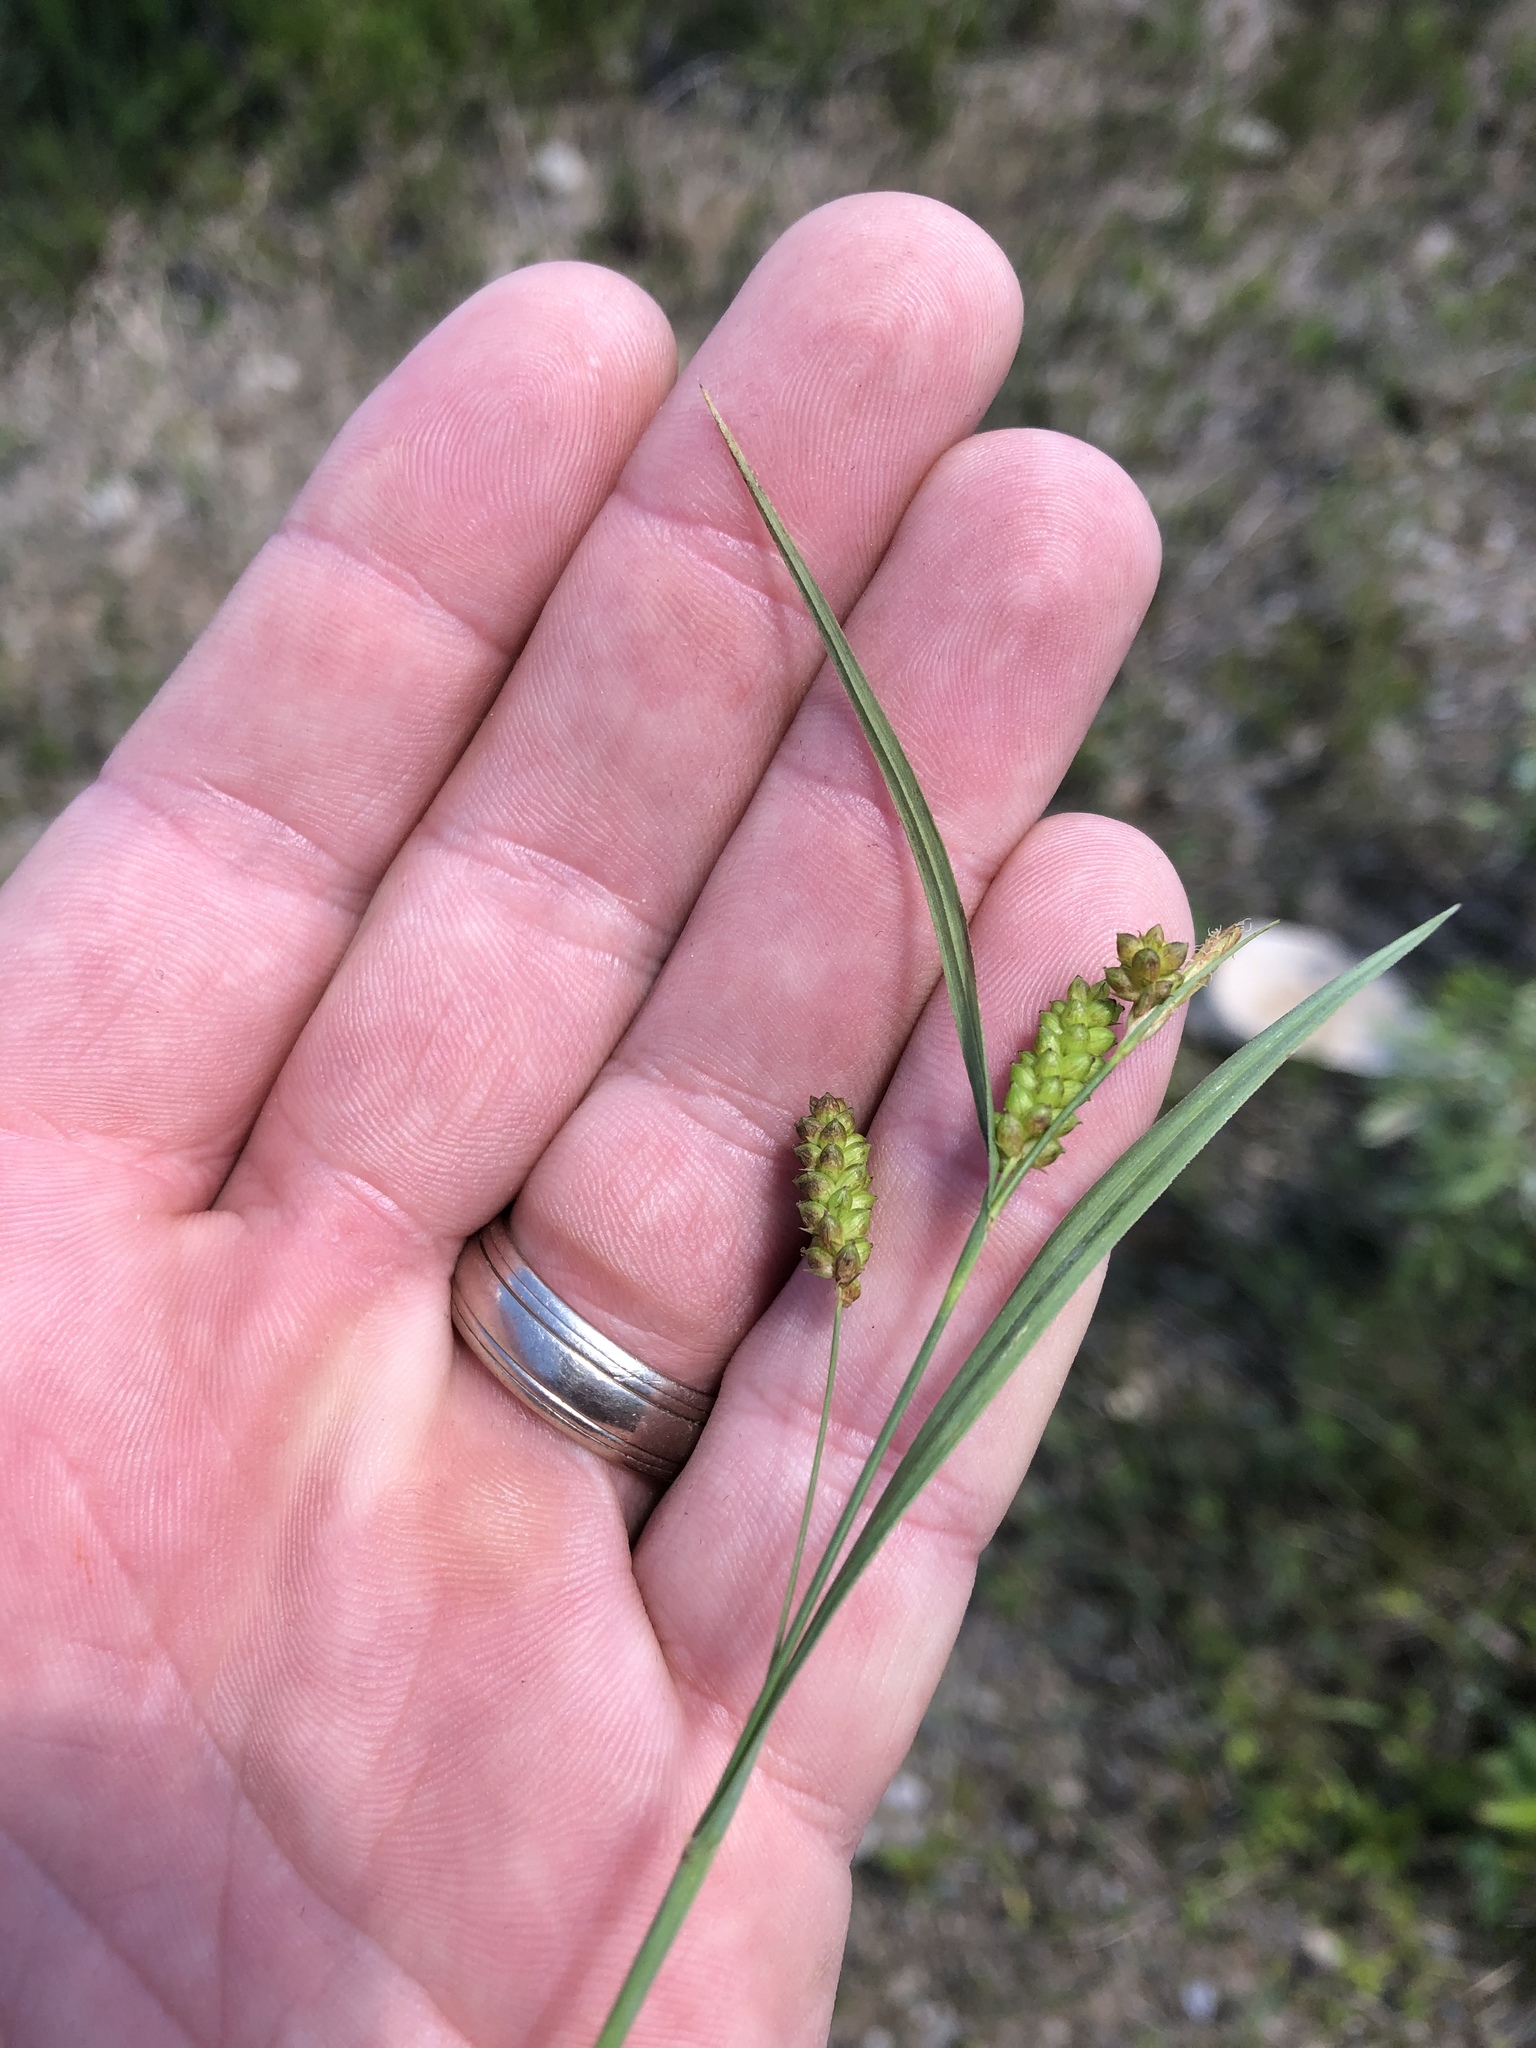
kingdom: Plantae
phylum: Tracheophyta
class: Liliopsida
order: Poales
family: Cyperaceae
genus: Carex
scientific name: Carex granularis
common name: Granular sedge
